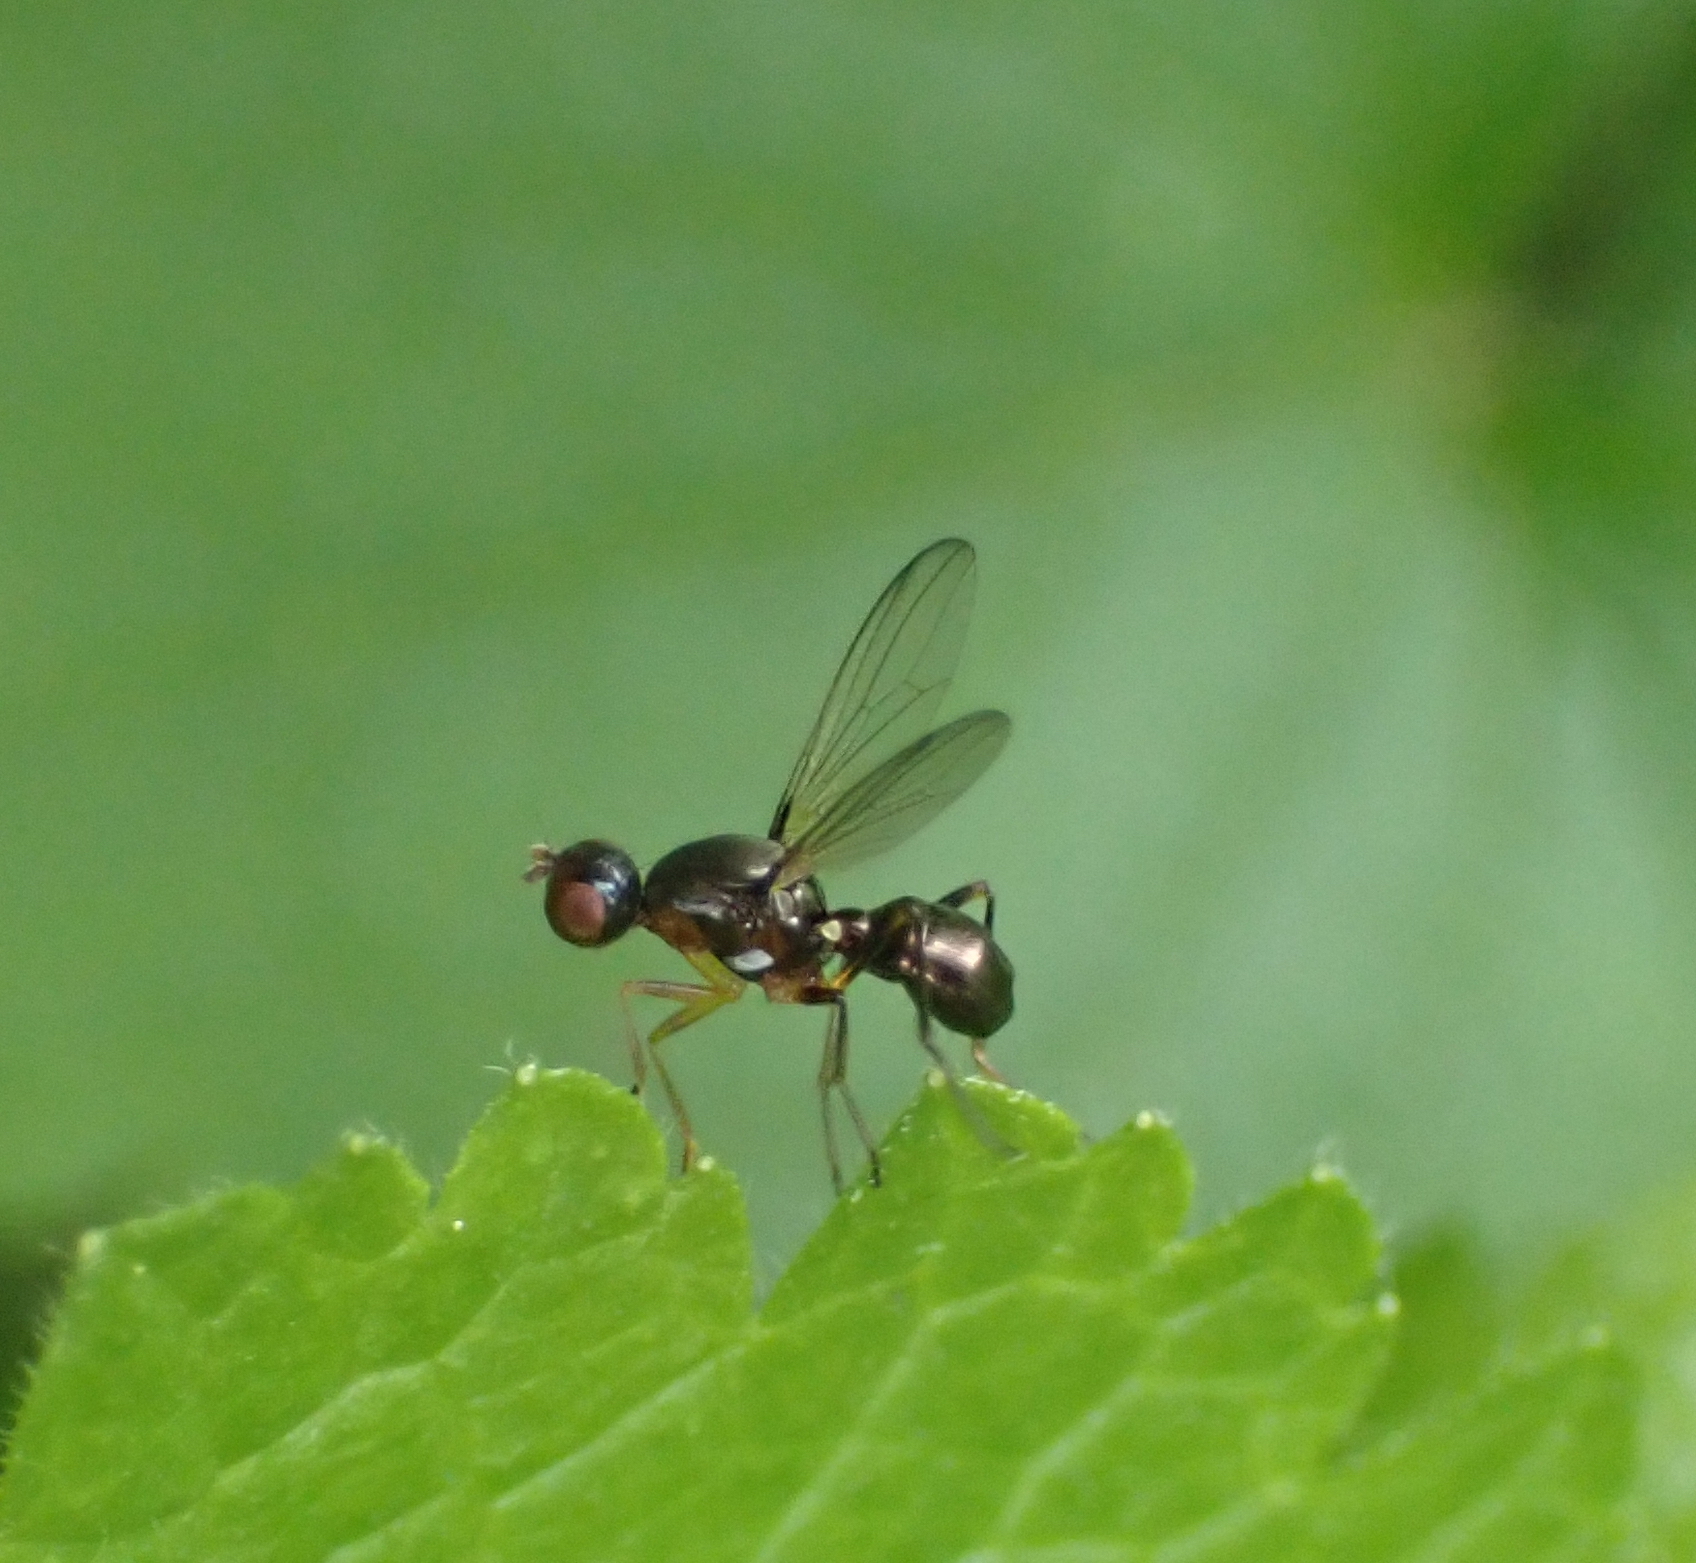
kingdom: Animalia
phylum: Arthropoda
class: Insecta
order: Diptera
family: Sepsidae
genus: Nemopoda
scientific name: Nemopoda nitidula
